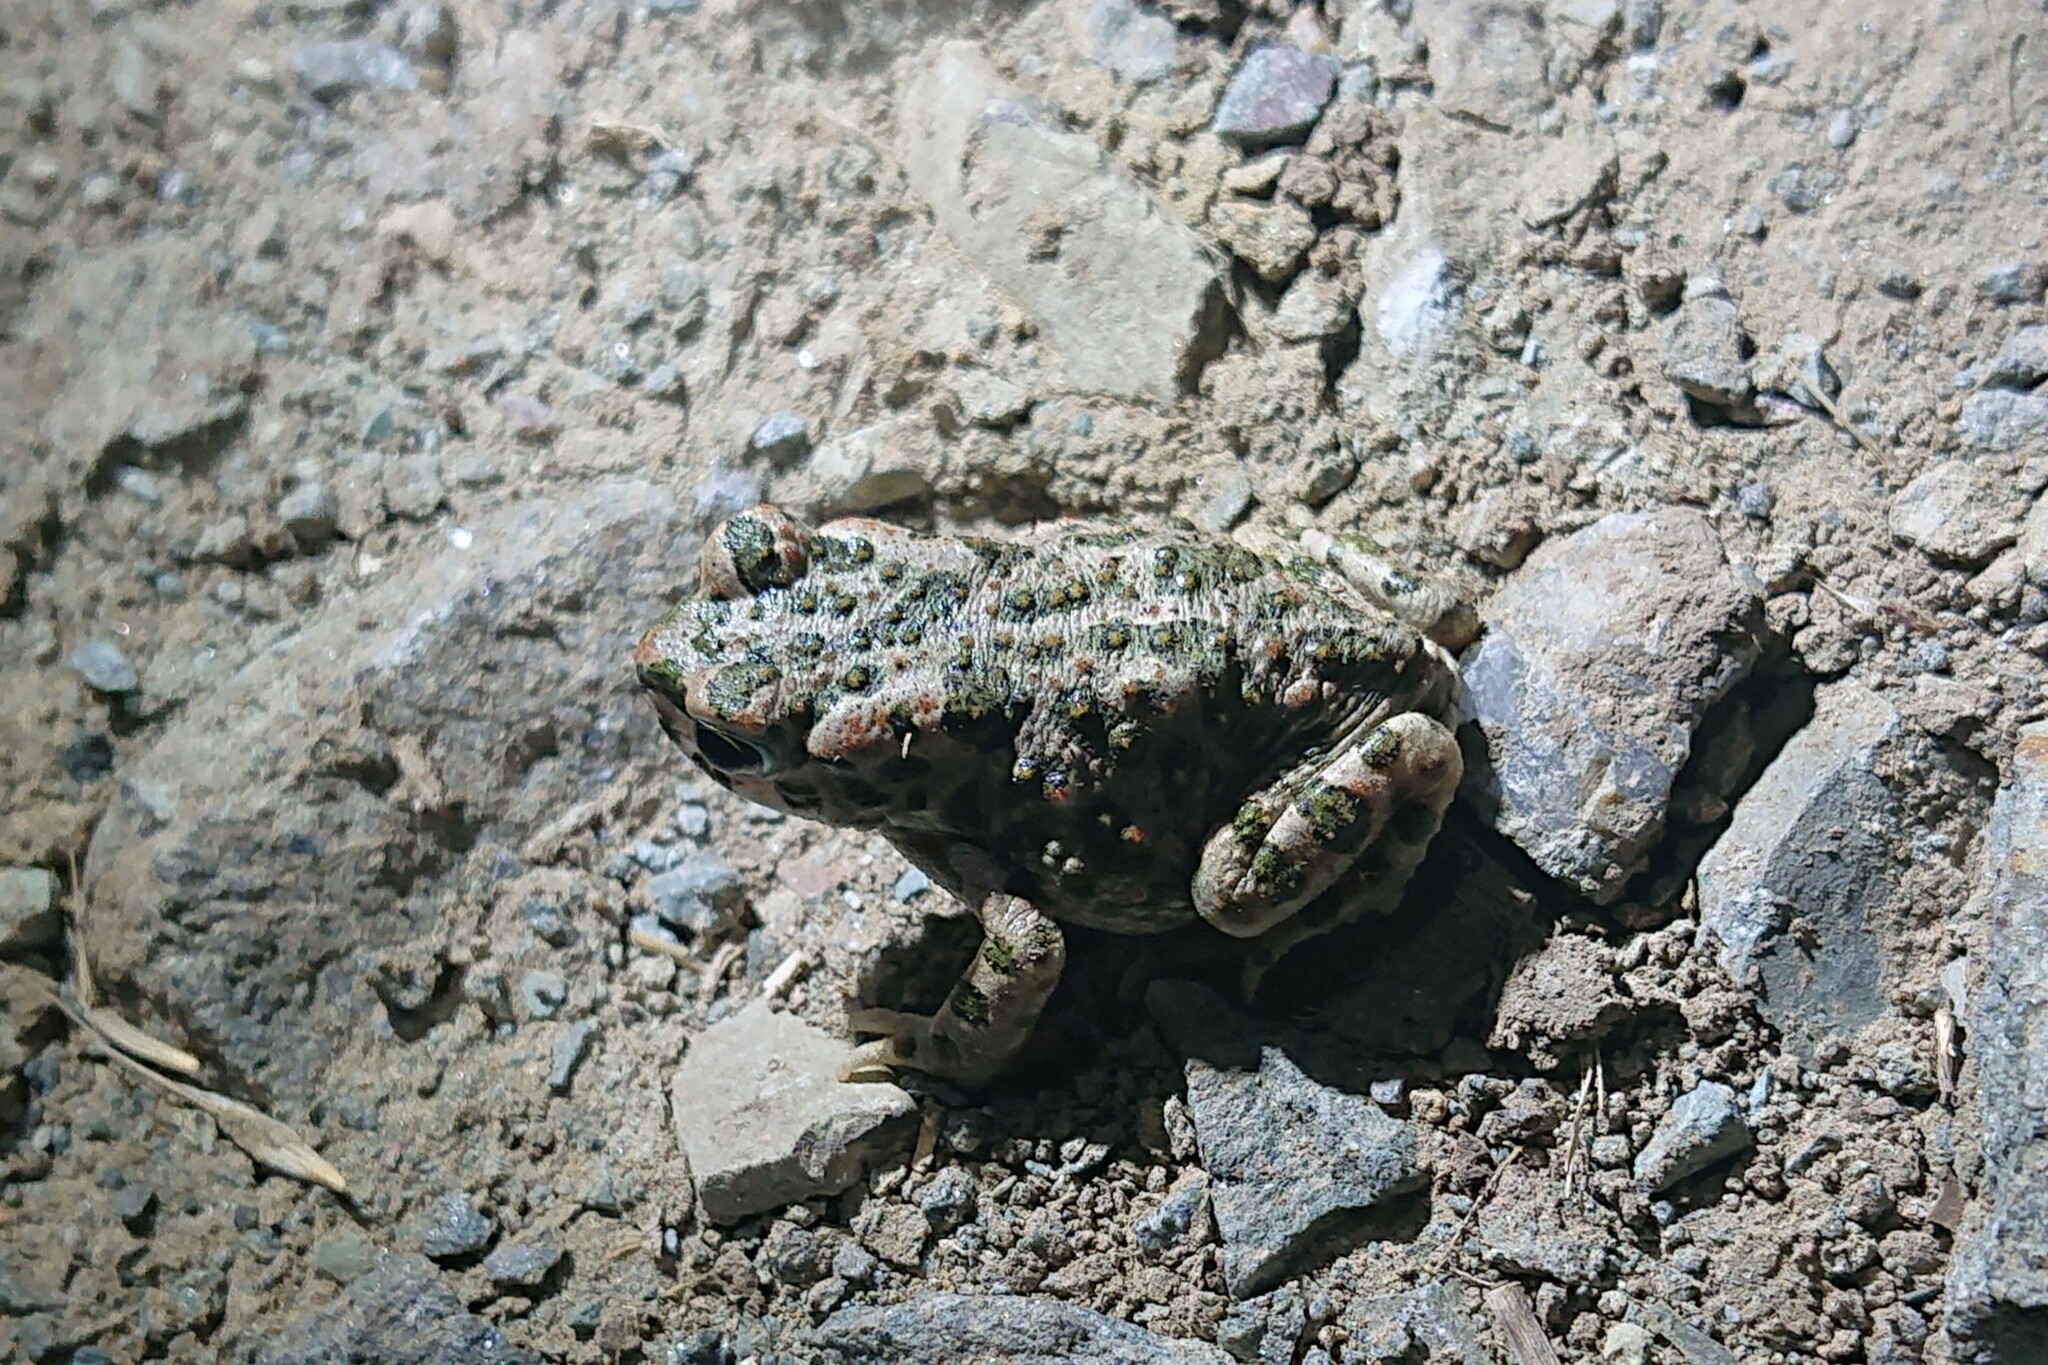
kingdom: Animalia
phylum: Chordata
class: Amphibia
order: Anura
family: Bufonidae
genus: Bufotes
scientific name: Bufotes viridis
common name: European green toad
